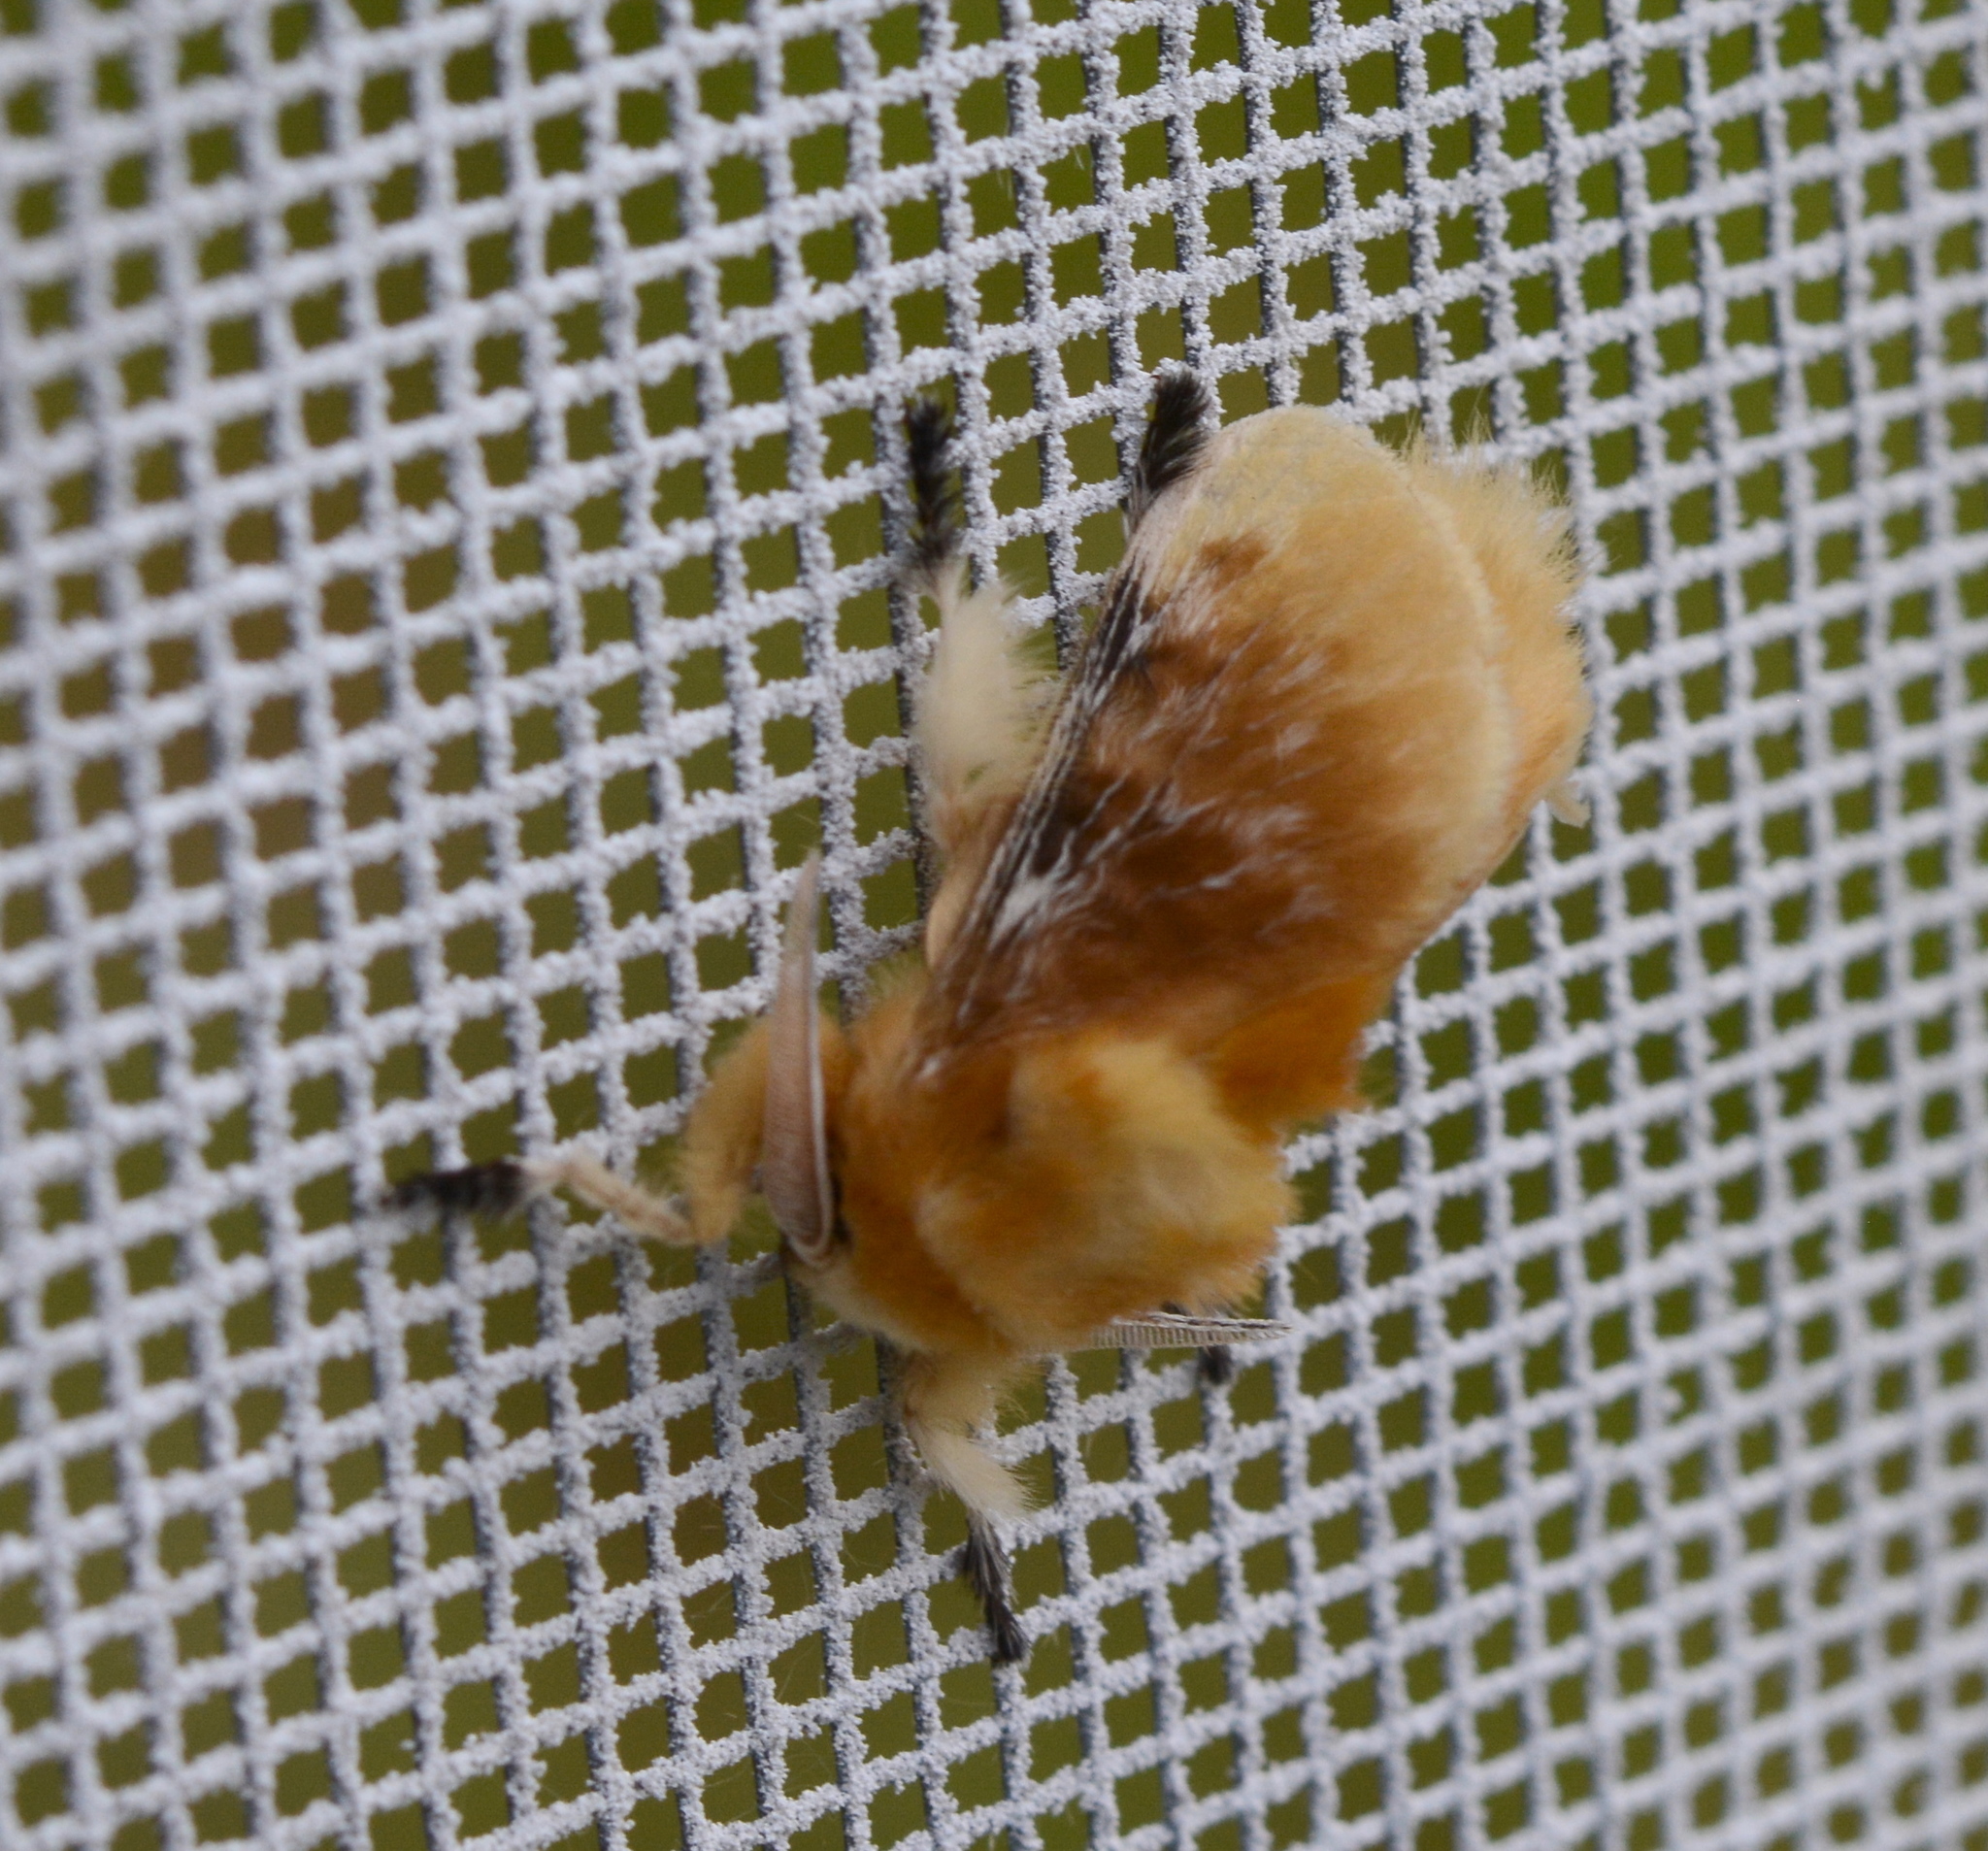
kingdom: Animalia
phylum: Arthropoda
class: Insecta
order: Lepidoptera
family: Megalopygidae
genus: Megalopyge
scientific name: Megalopyge opercularis
